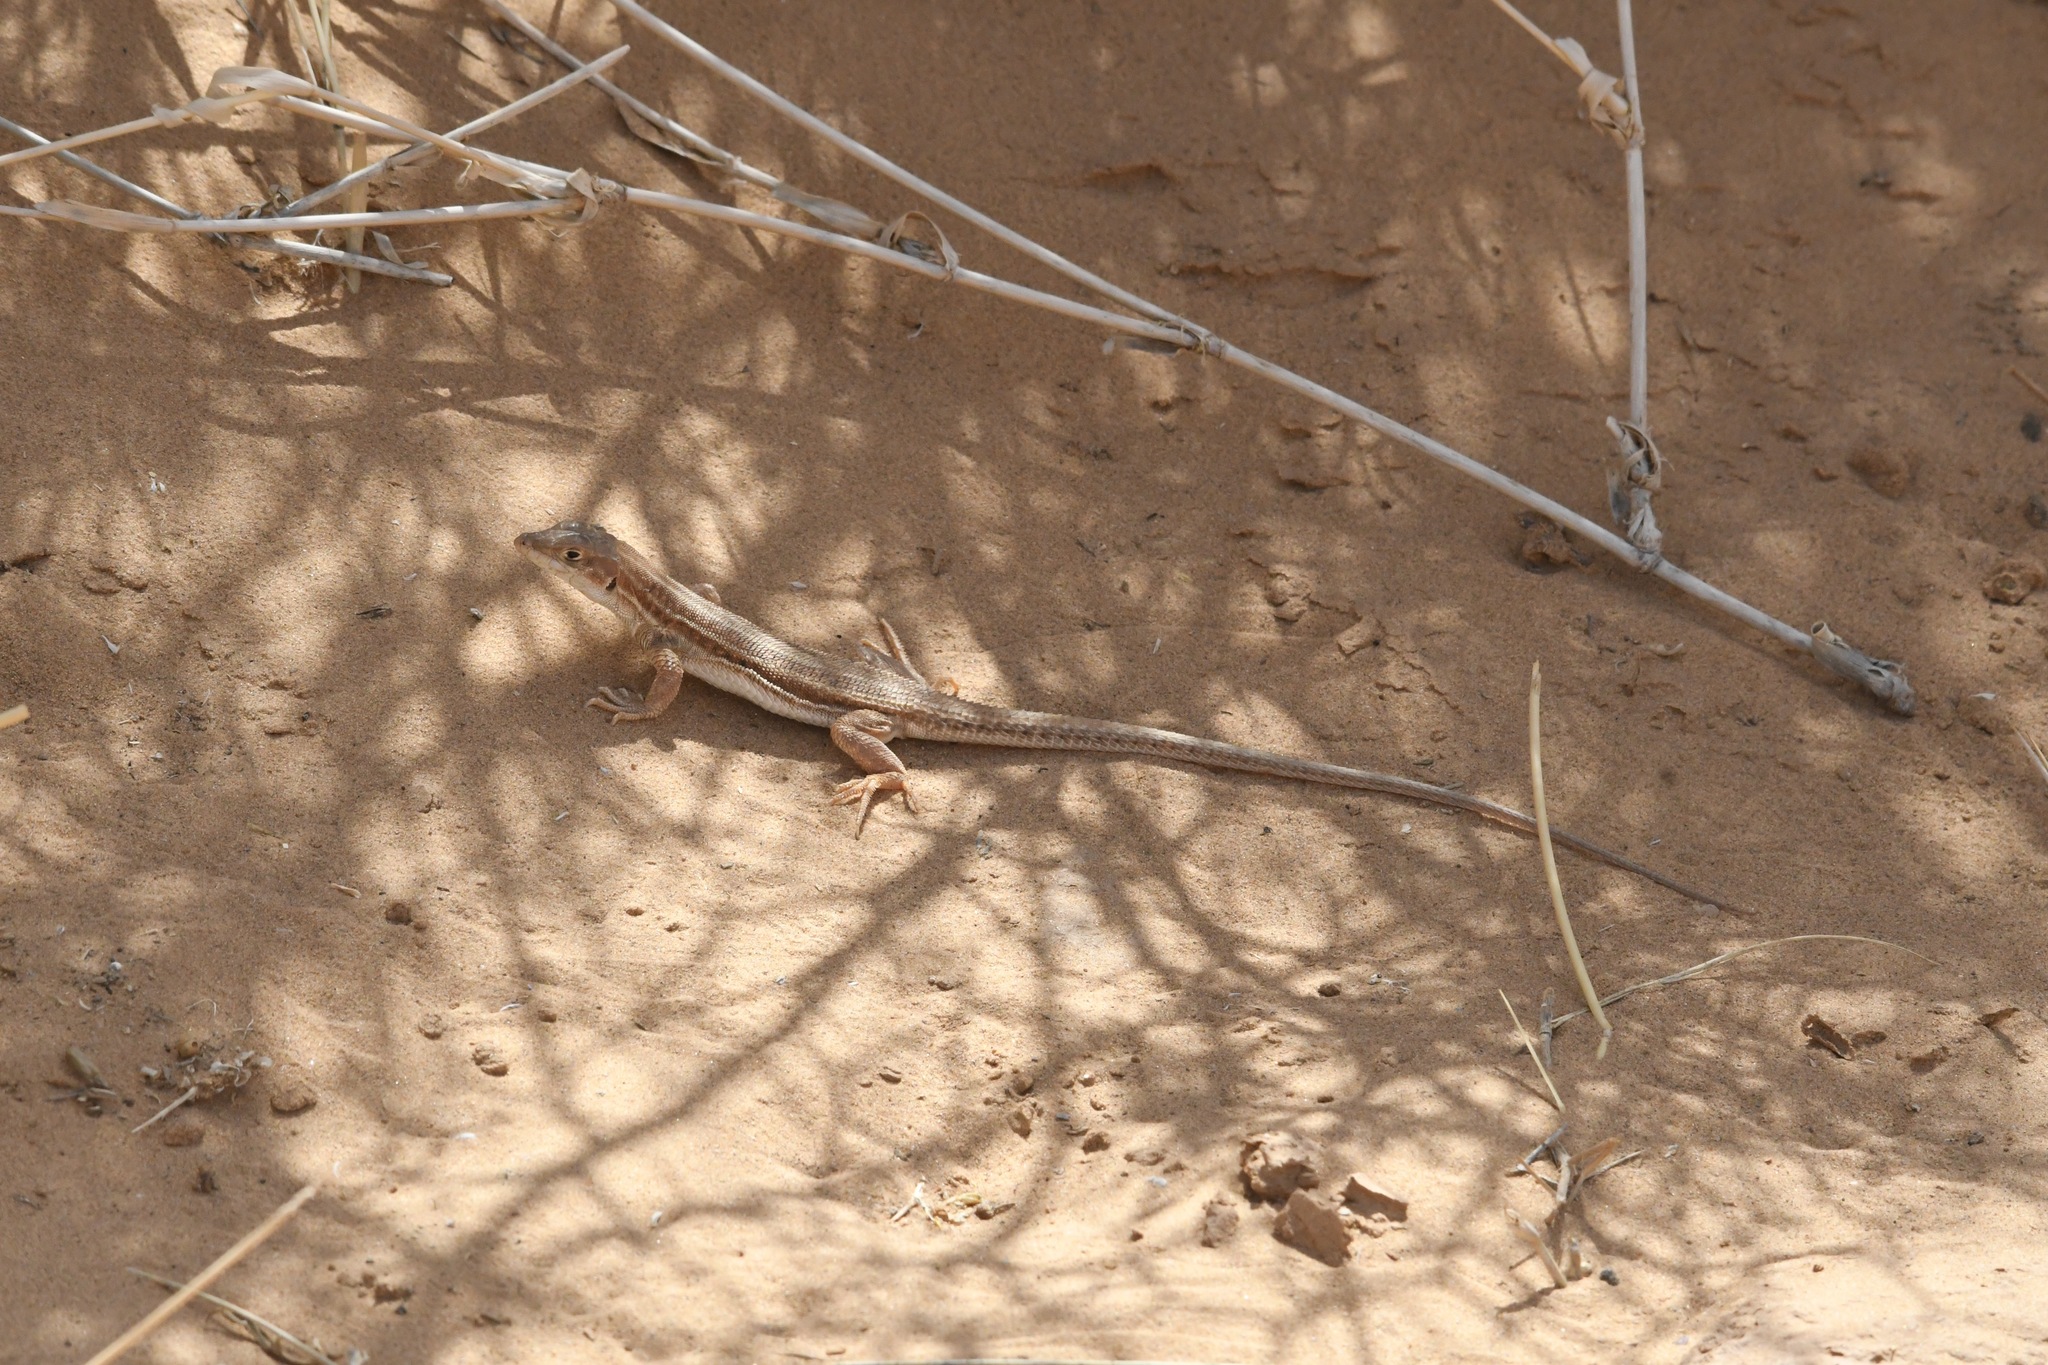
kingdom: Animalia
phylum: Chordata
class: Squamata
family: Lacertidae
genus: Acanthodactylus
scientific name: Acanthodactylus boskianus
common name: Bosc’s fringe-toed lizard
